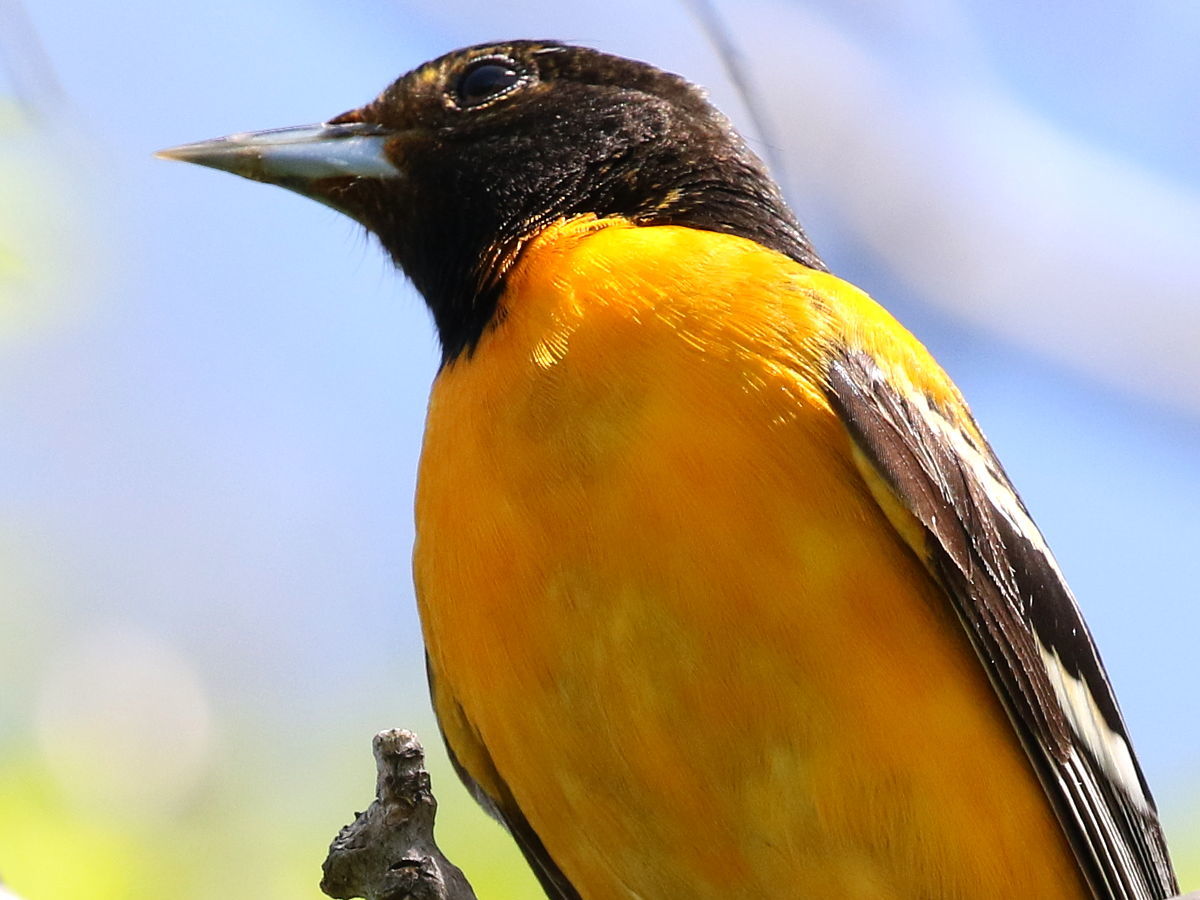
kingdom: Animalia
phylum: Chordata
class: Aves
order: Passeriformes
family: Icteridae
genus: Icterus
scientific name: Icterus galbula
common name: Baltimore oriole
